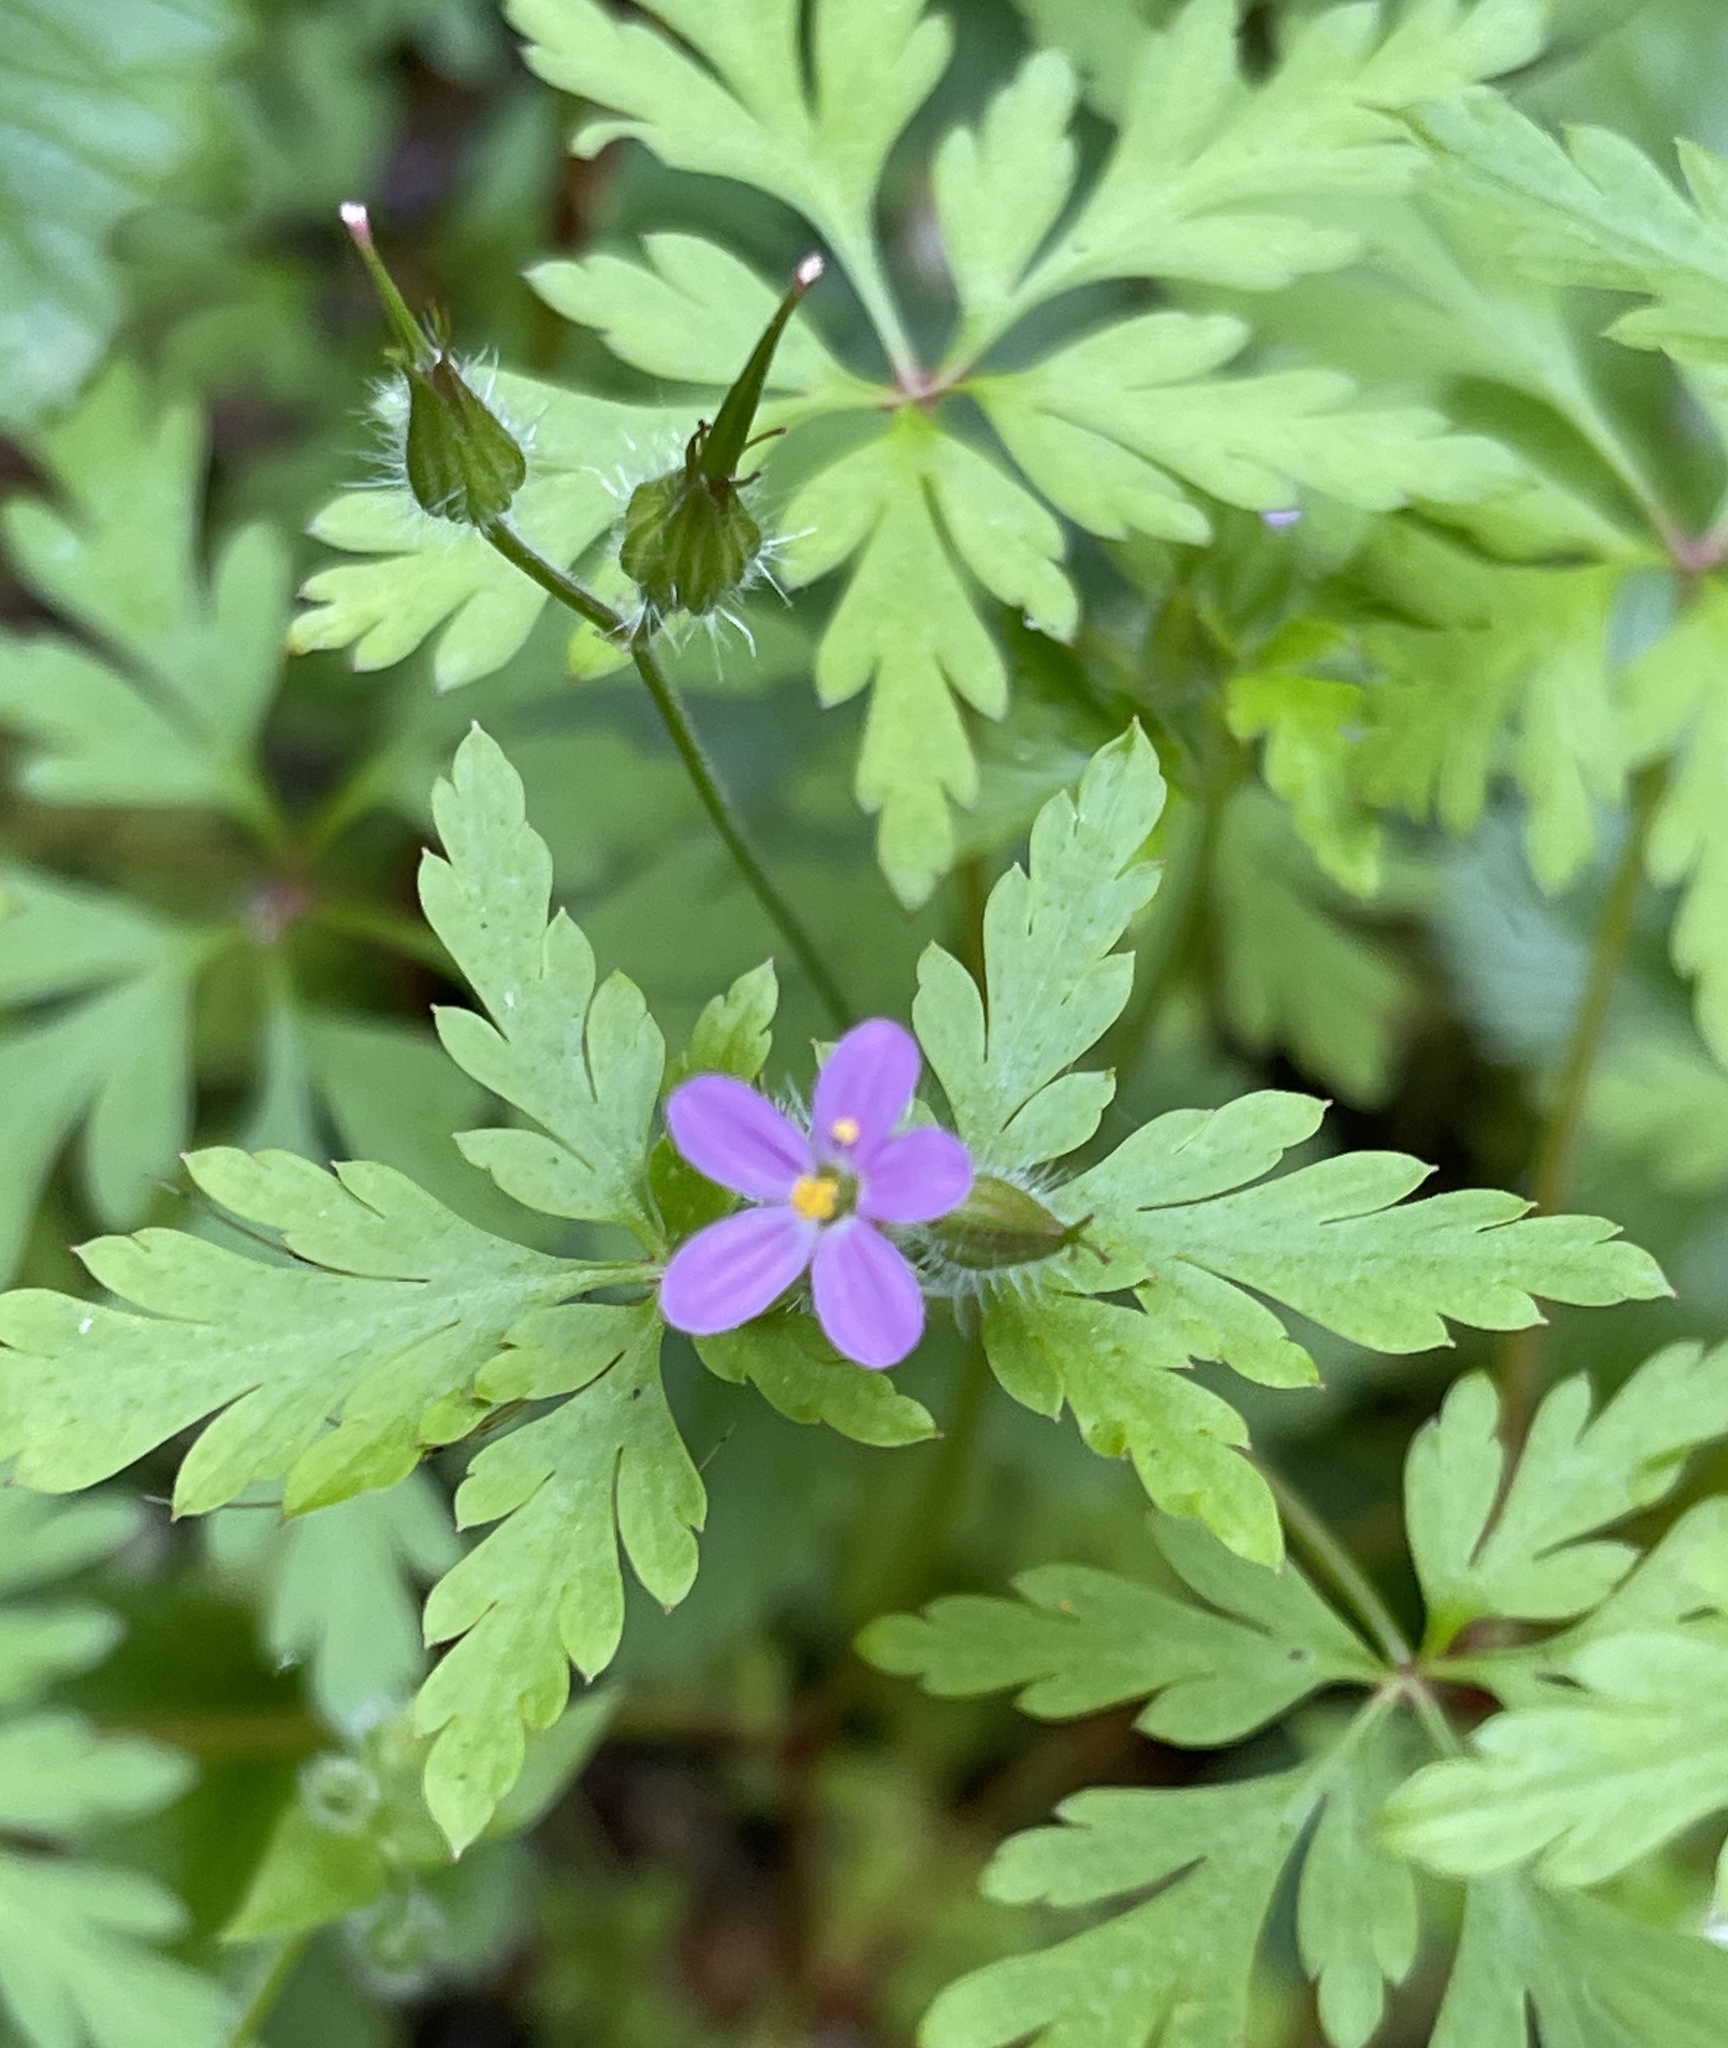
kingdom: Plantae
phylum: Tracheophyta
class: Magnoliopsida
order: Geraniales
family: Geraniaceae
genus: Geranium
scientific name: Geranium purpureum
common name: Little-robin
